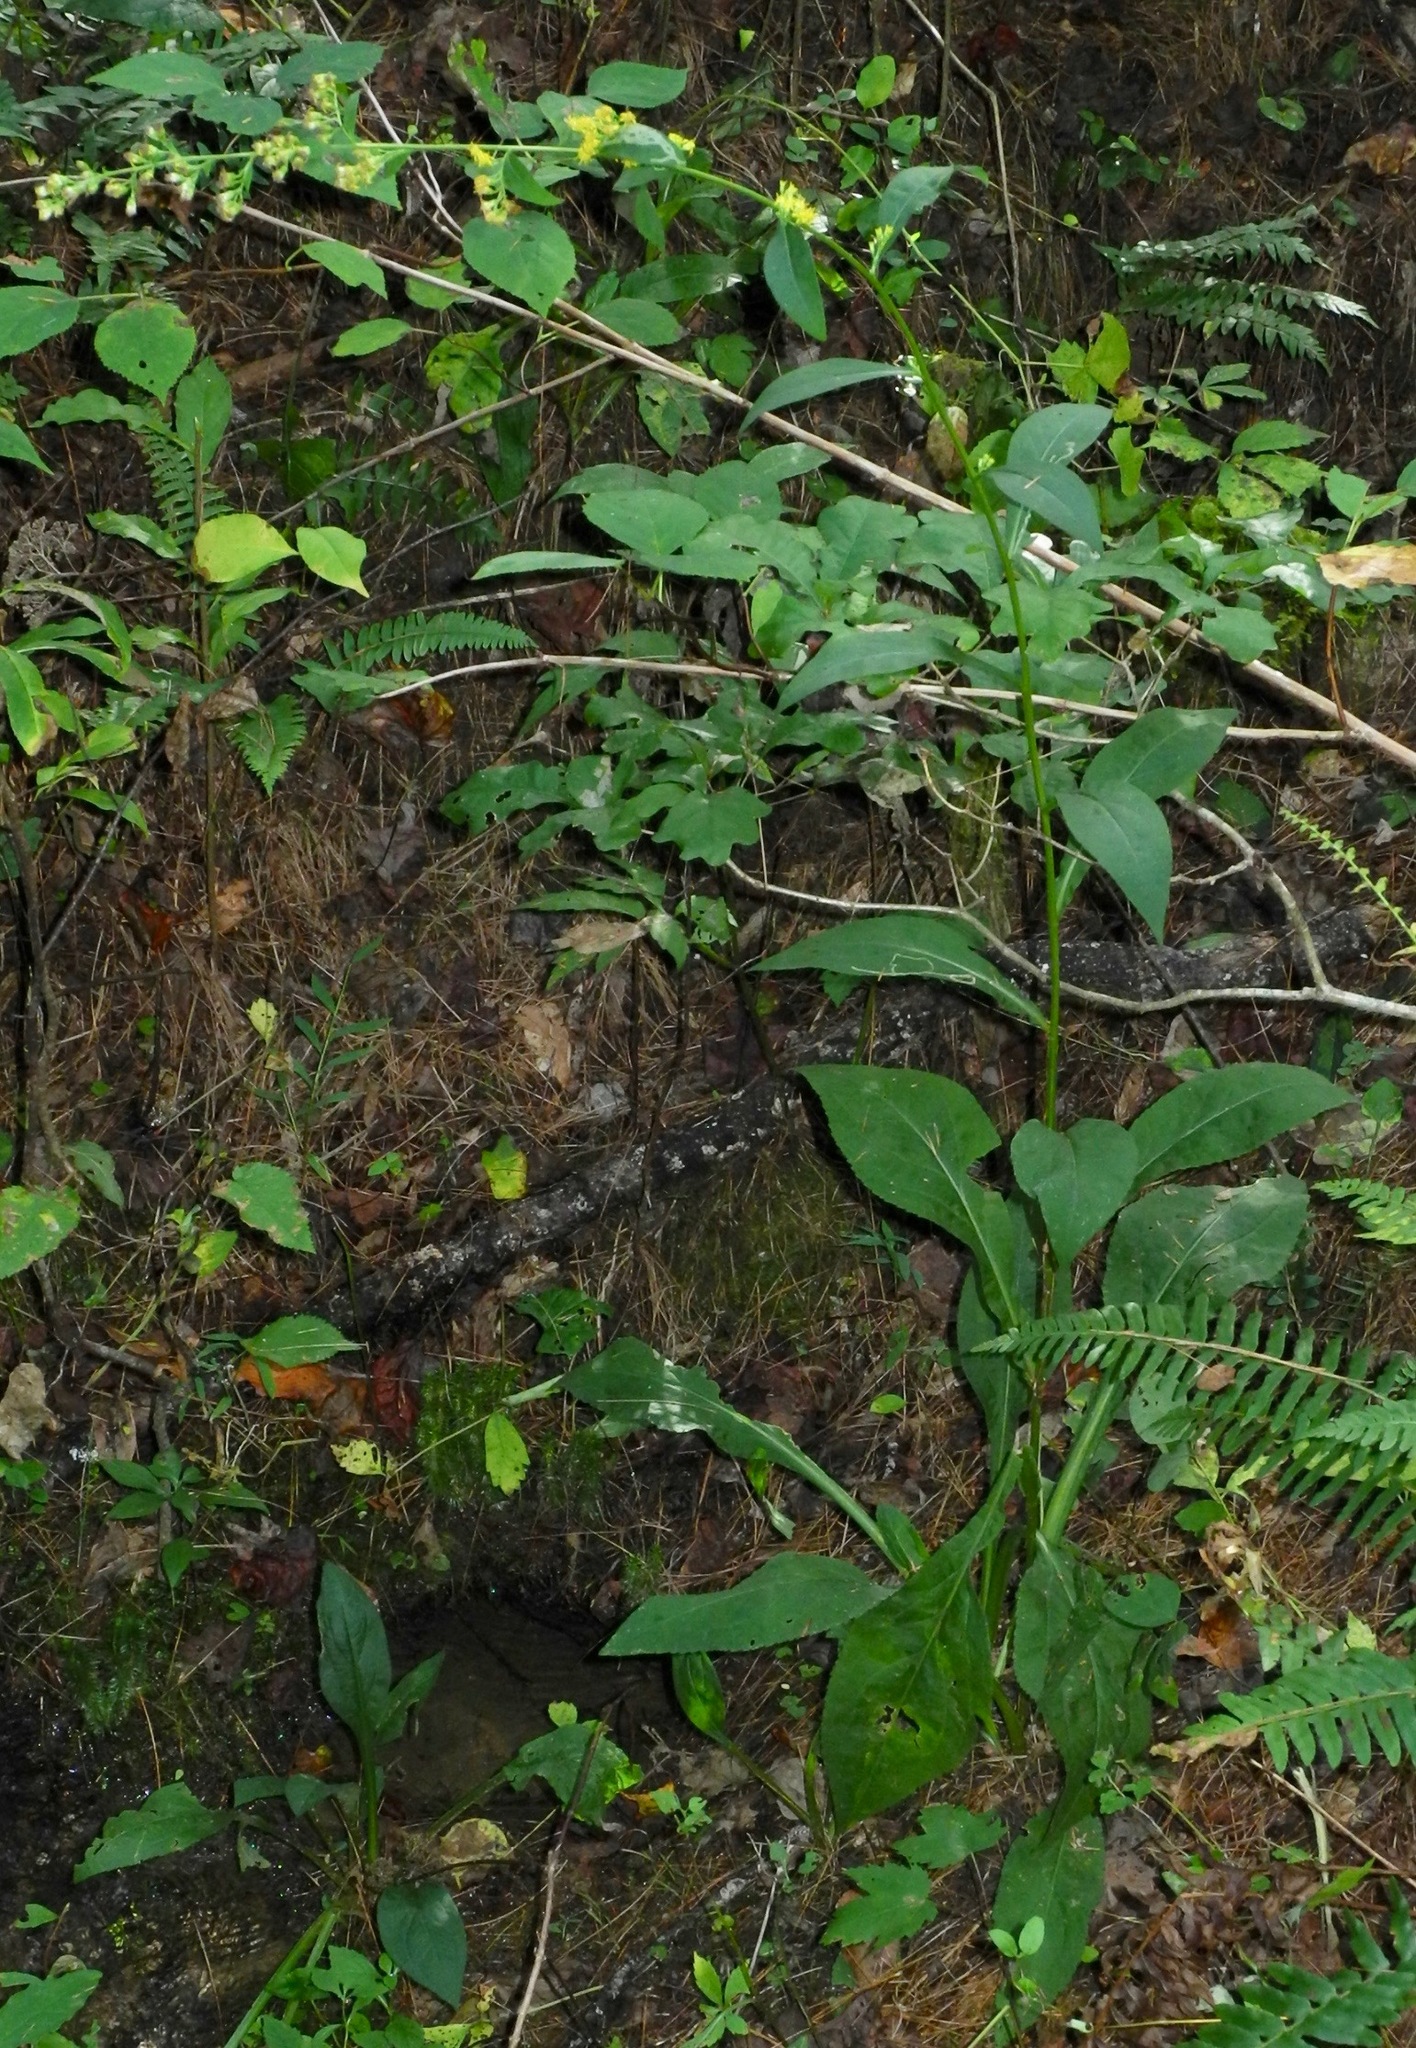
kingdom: Plantae
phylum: Tracheophyta
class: Magnoliopsida
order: Asterales
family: Asteraceae
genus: Solidago
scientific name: Solidago patula
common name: Rough-leaf goldenrod
